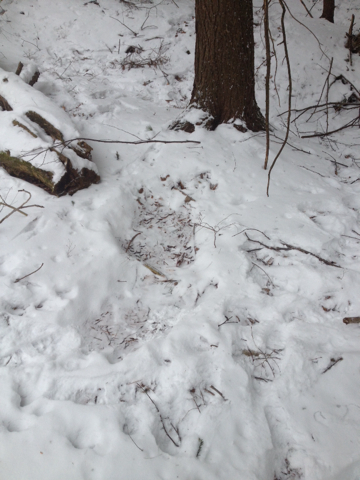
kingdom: Animalia
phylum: Chordata
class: Mammalia
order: Artiodactyla
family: Cervidae
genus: Odocoileus
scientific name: Odocoileus virginianus
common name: White-tailed deer
